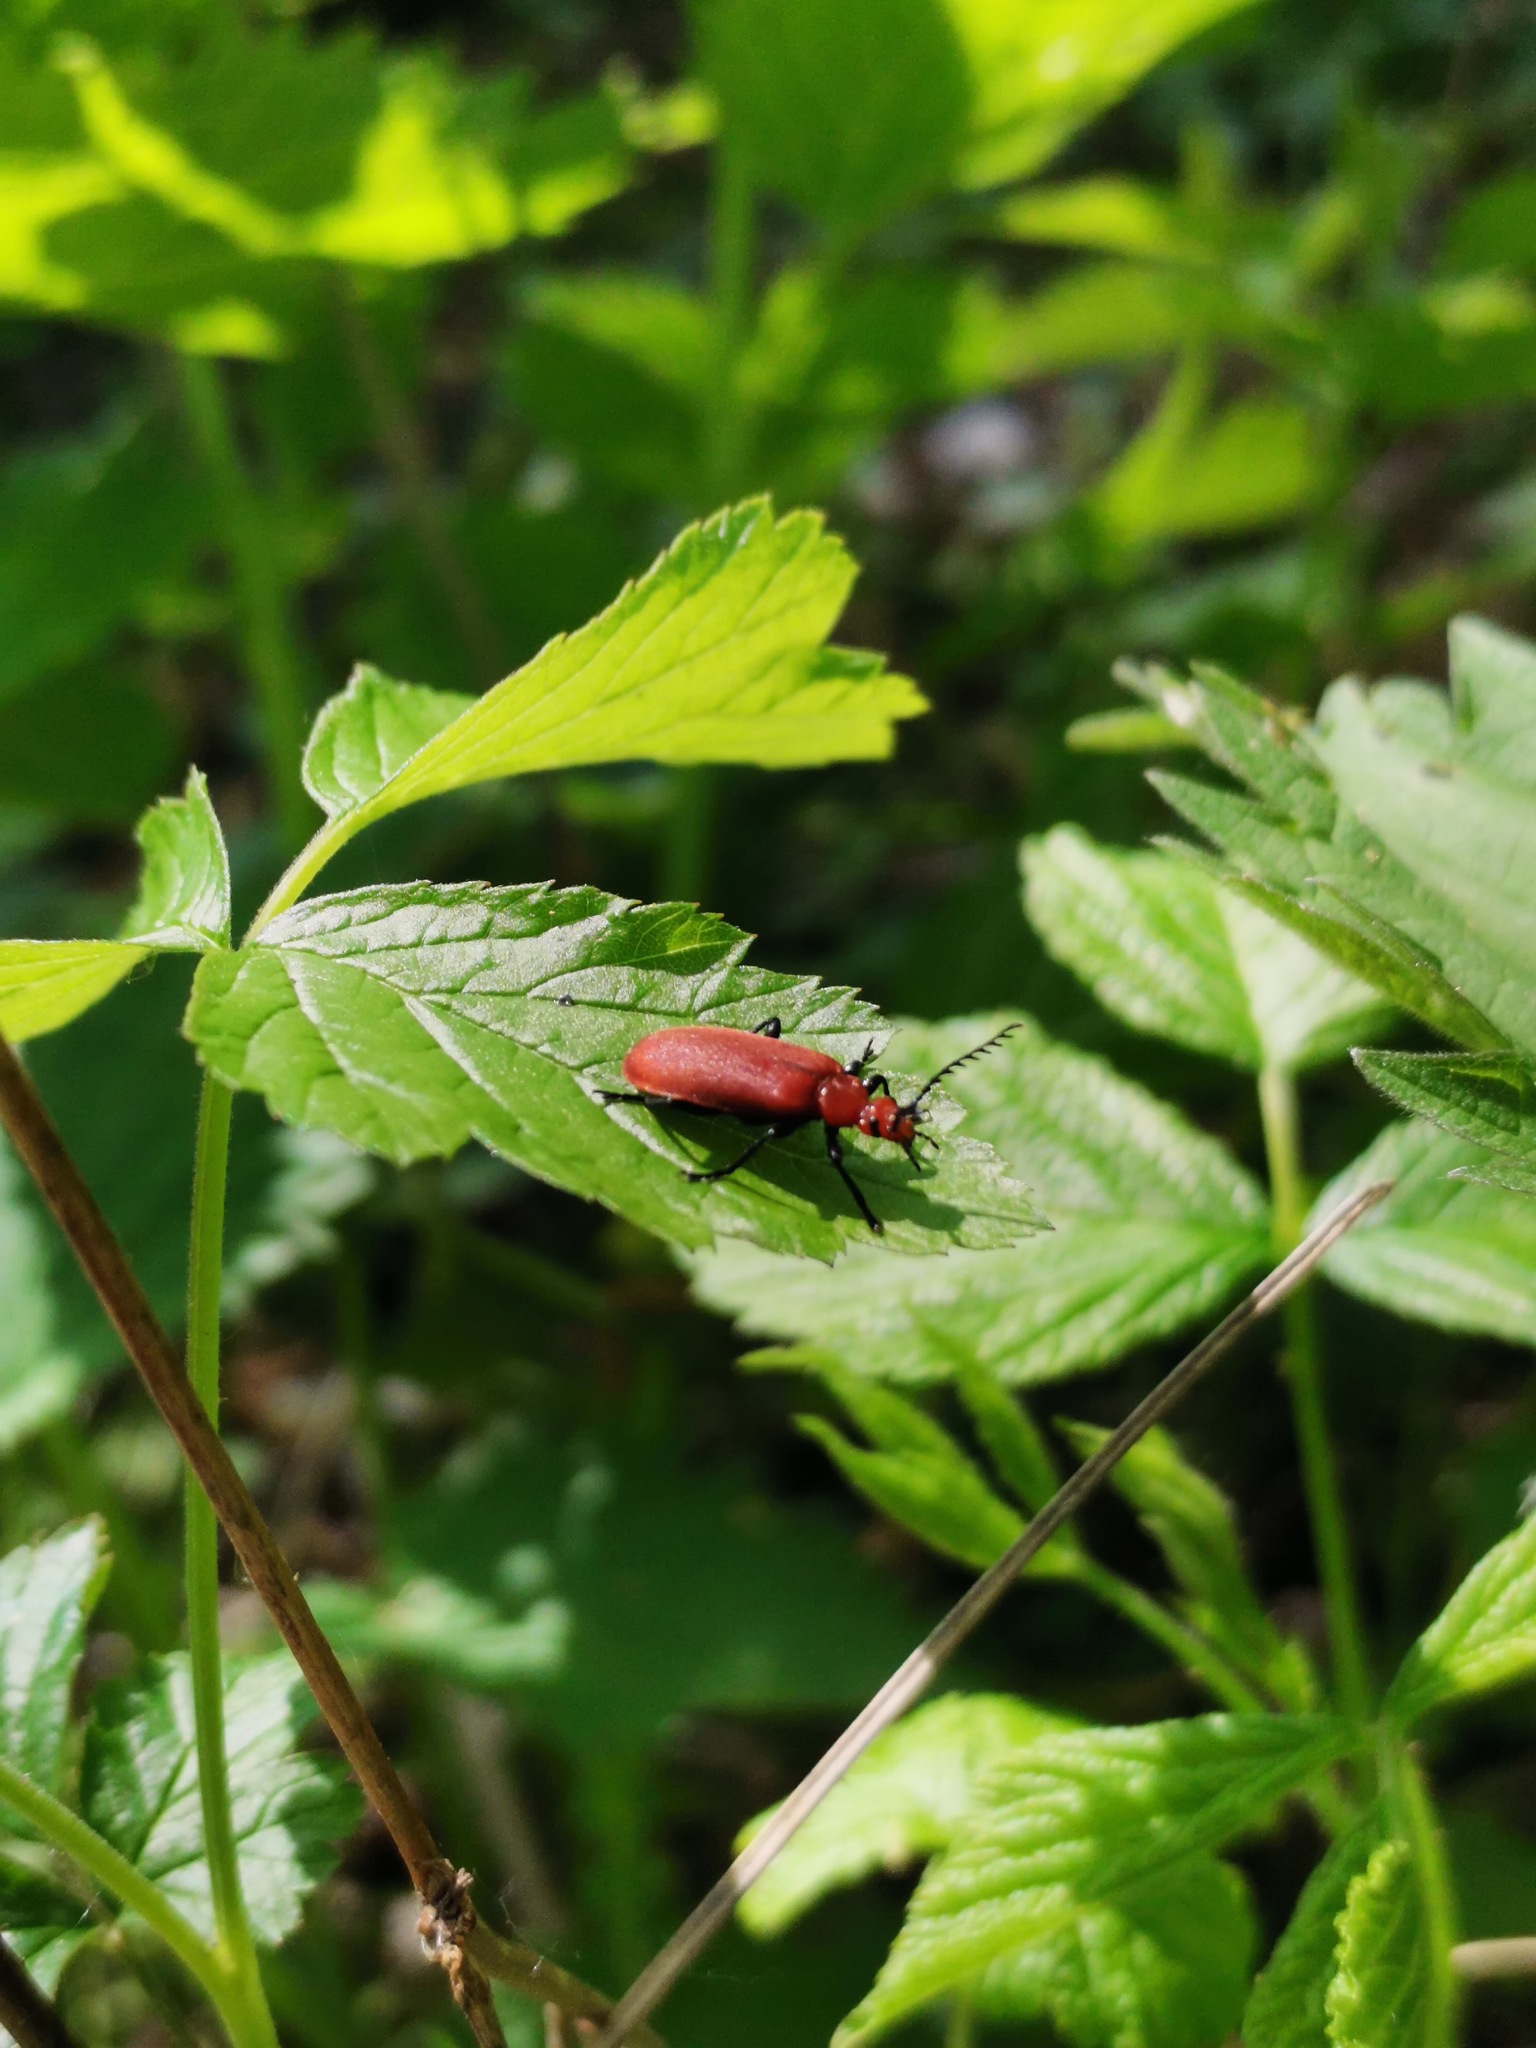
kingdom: Animalia
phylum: Arthropoda
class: Insecta
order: Coleoptera
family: Pyrochroidae
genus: Pyrochroa
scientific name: Pyrochroa serraticornis
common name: Red-headed cardinal beetle
